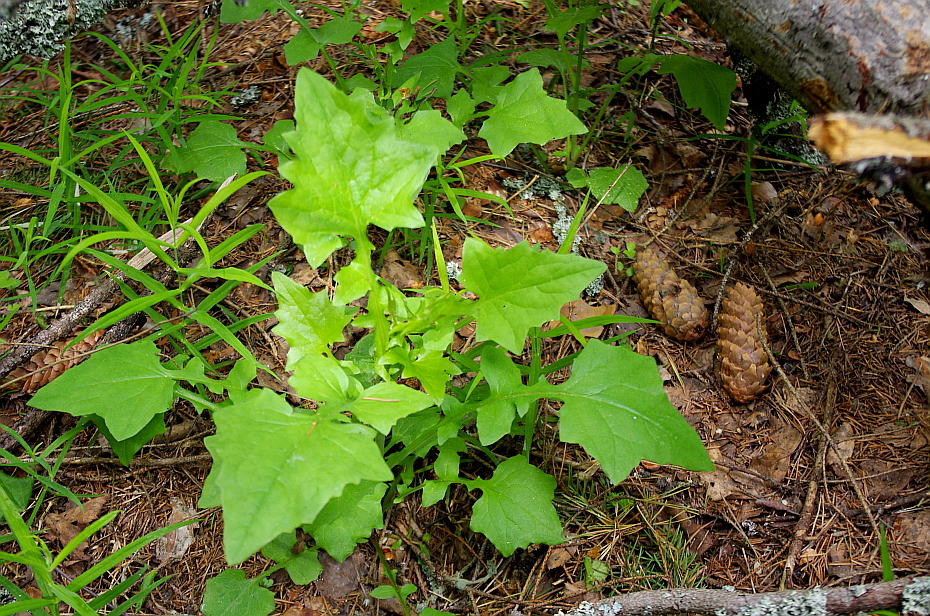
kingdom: Plantae
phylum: Tracheophyta
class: Magnoliopsida
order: Asterales
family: Asteraceae
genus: Mycelis
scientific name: Mycelis muralis
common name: Wall lettuce
